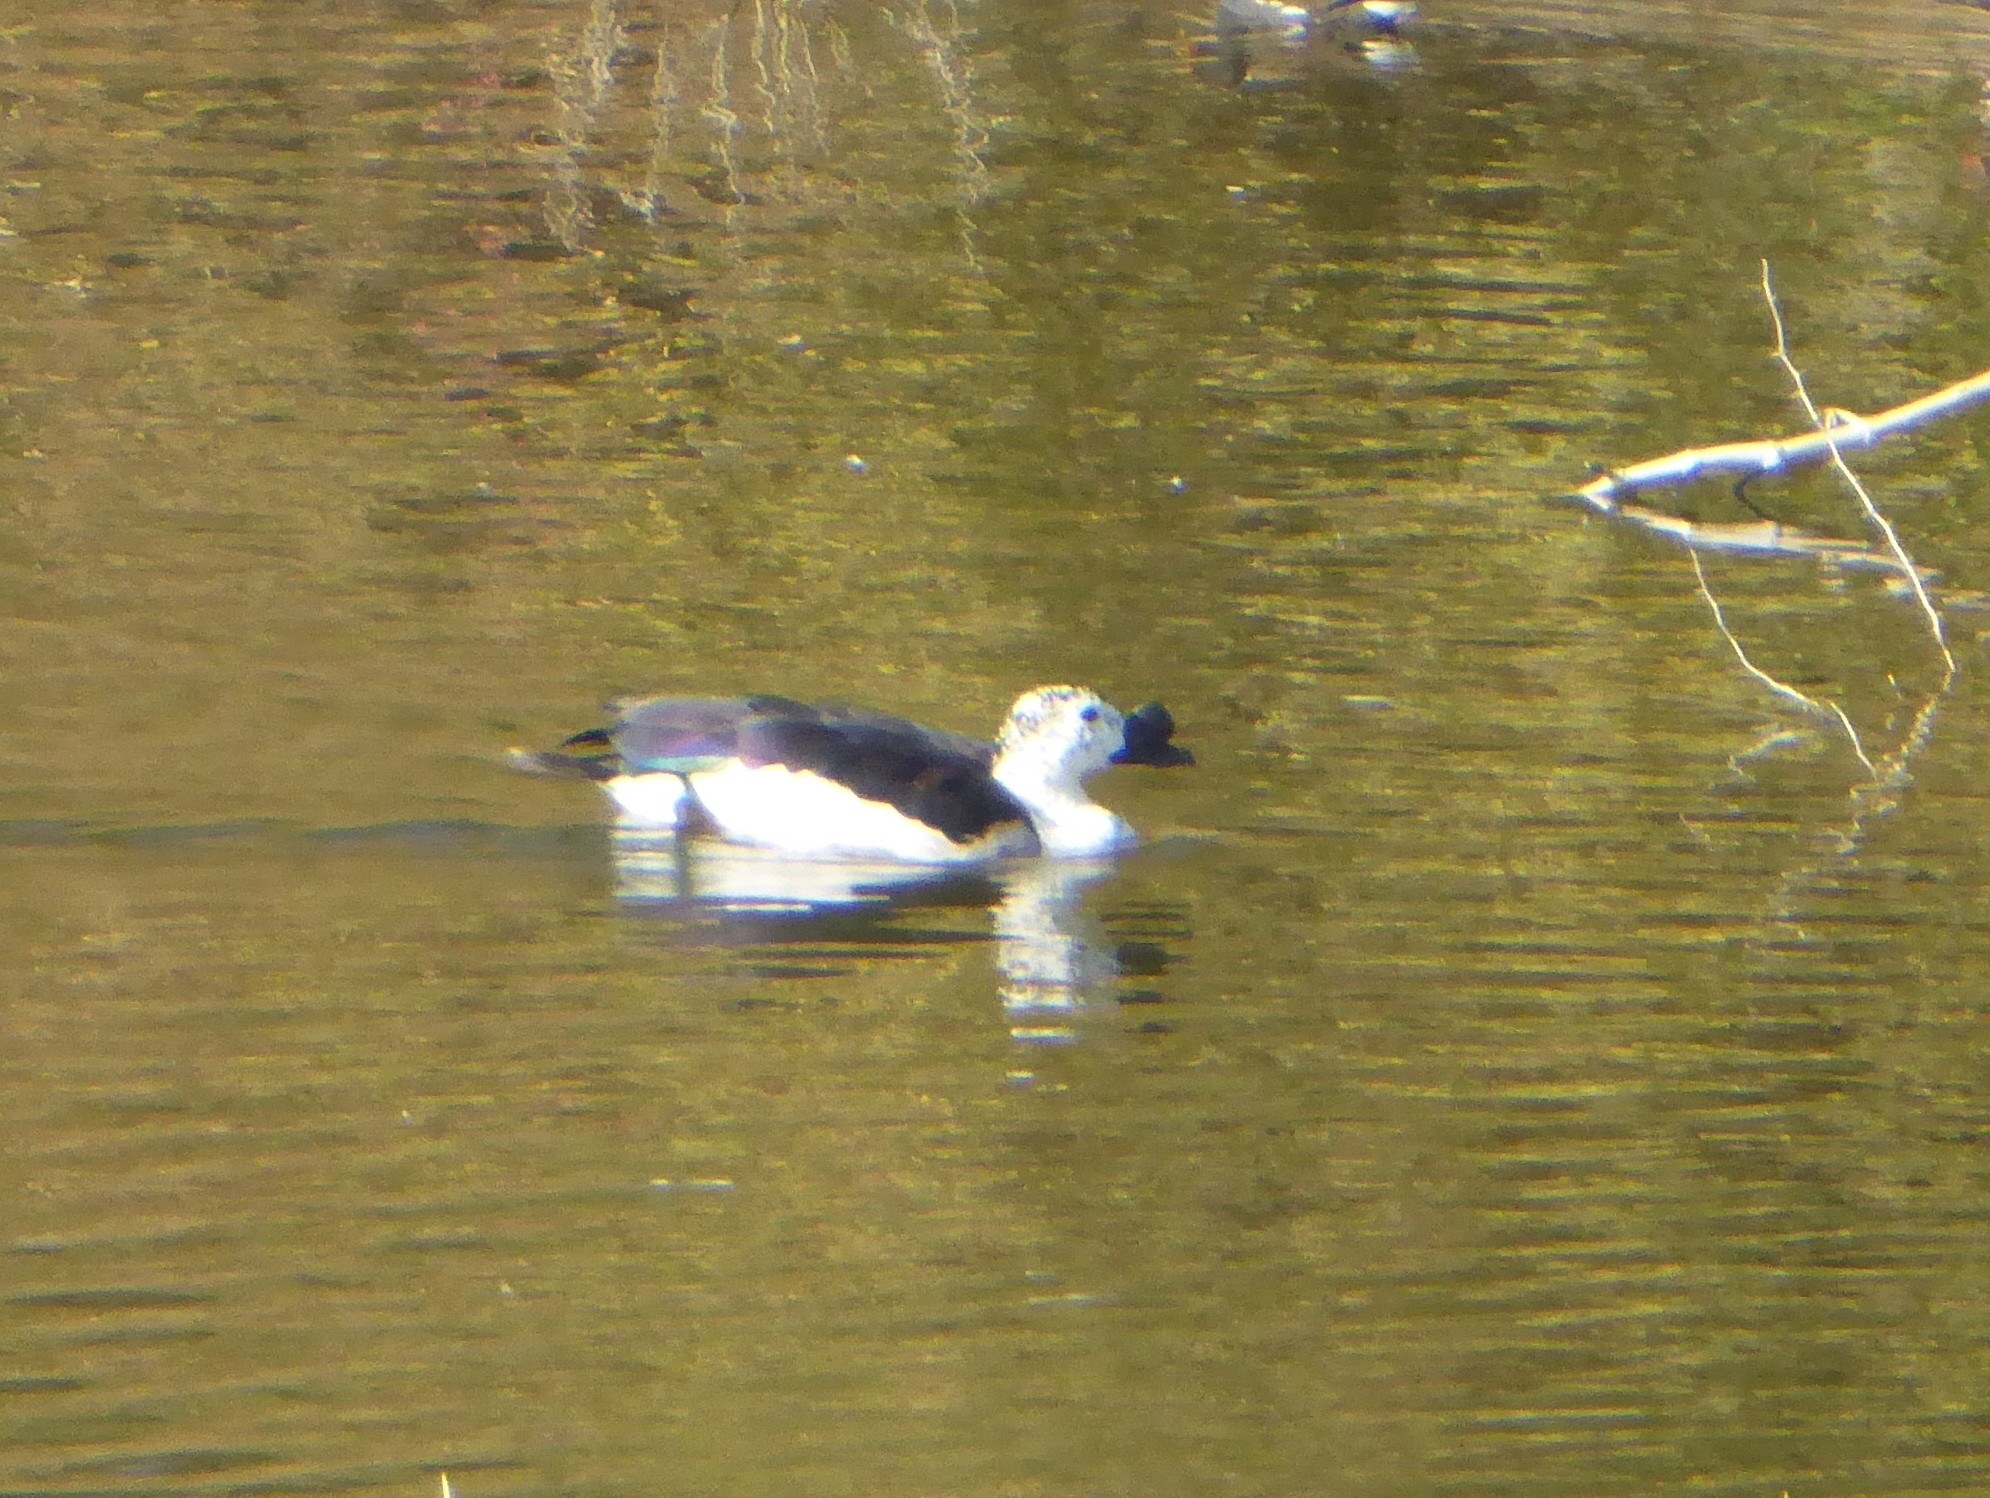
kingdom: Animalia
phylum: Chordata
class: Aves
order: Anseriformes
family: Anatidae
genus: Sarkidiornis
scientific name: Sarkidiornis melanotos
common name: Comb duck
